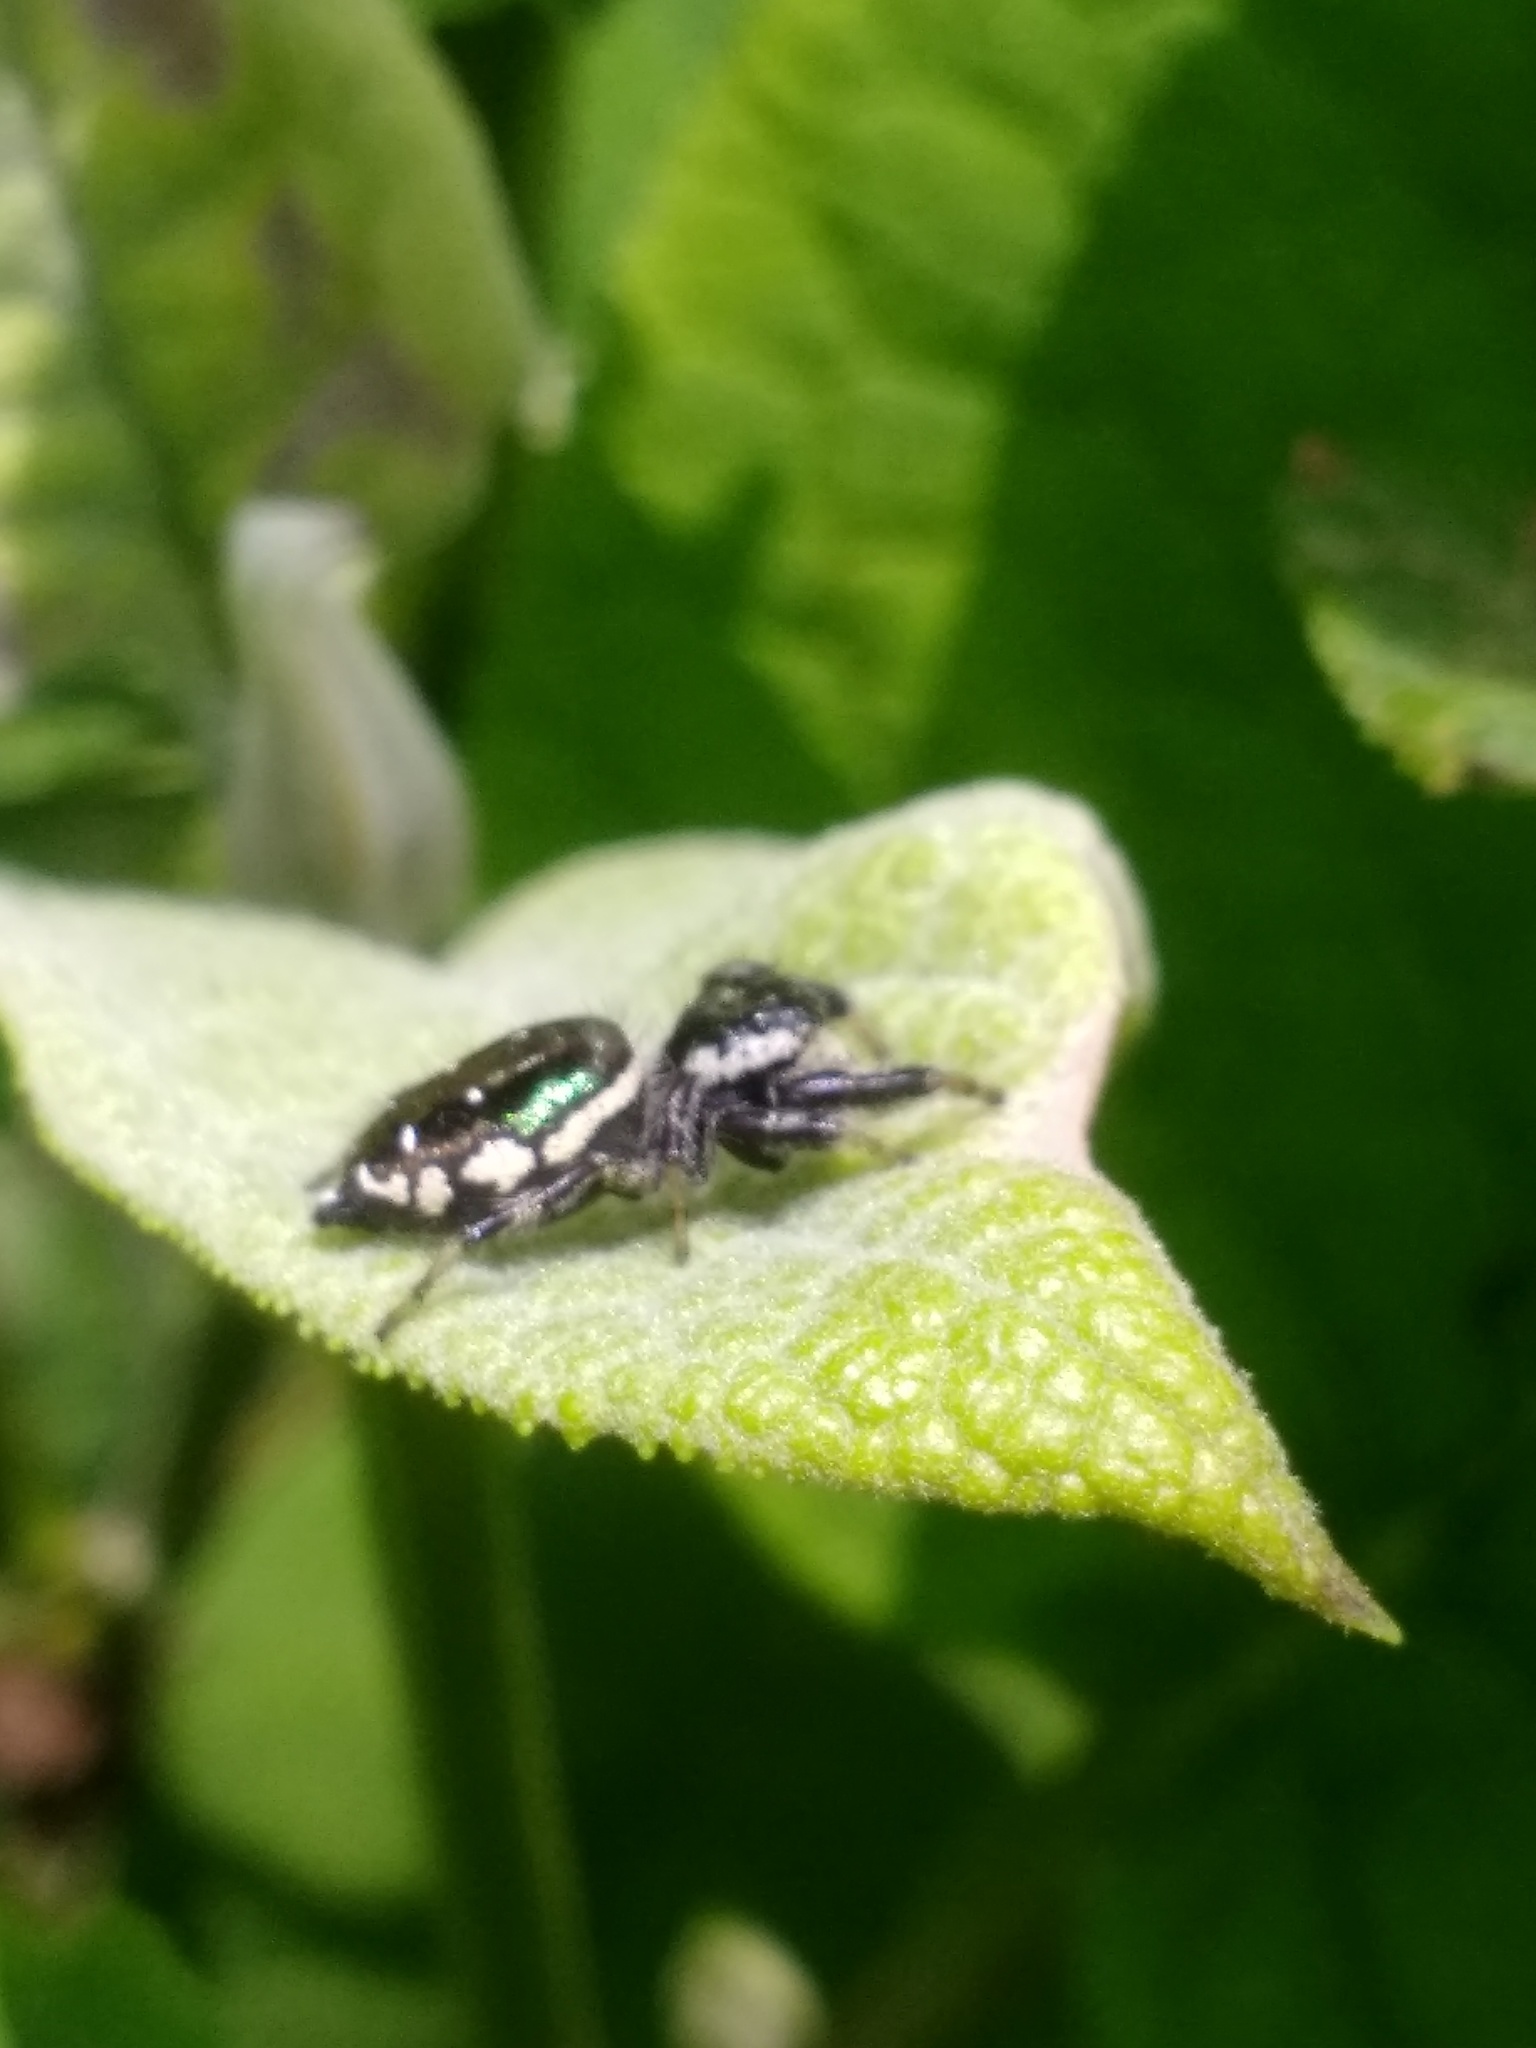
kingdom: Animalia
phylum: Arthropoda
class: Arachnida
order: Araneae
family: Salticidae
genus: Paraphidippus
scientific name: Paraphidippus aurantius
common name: Jumping spiders
